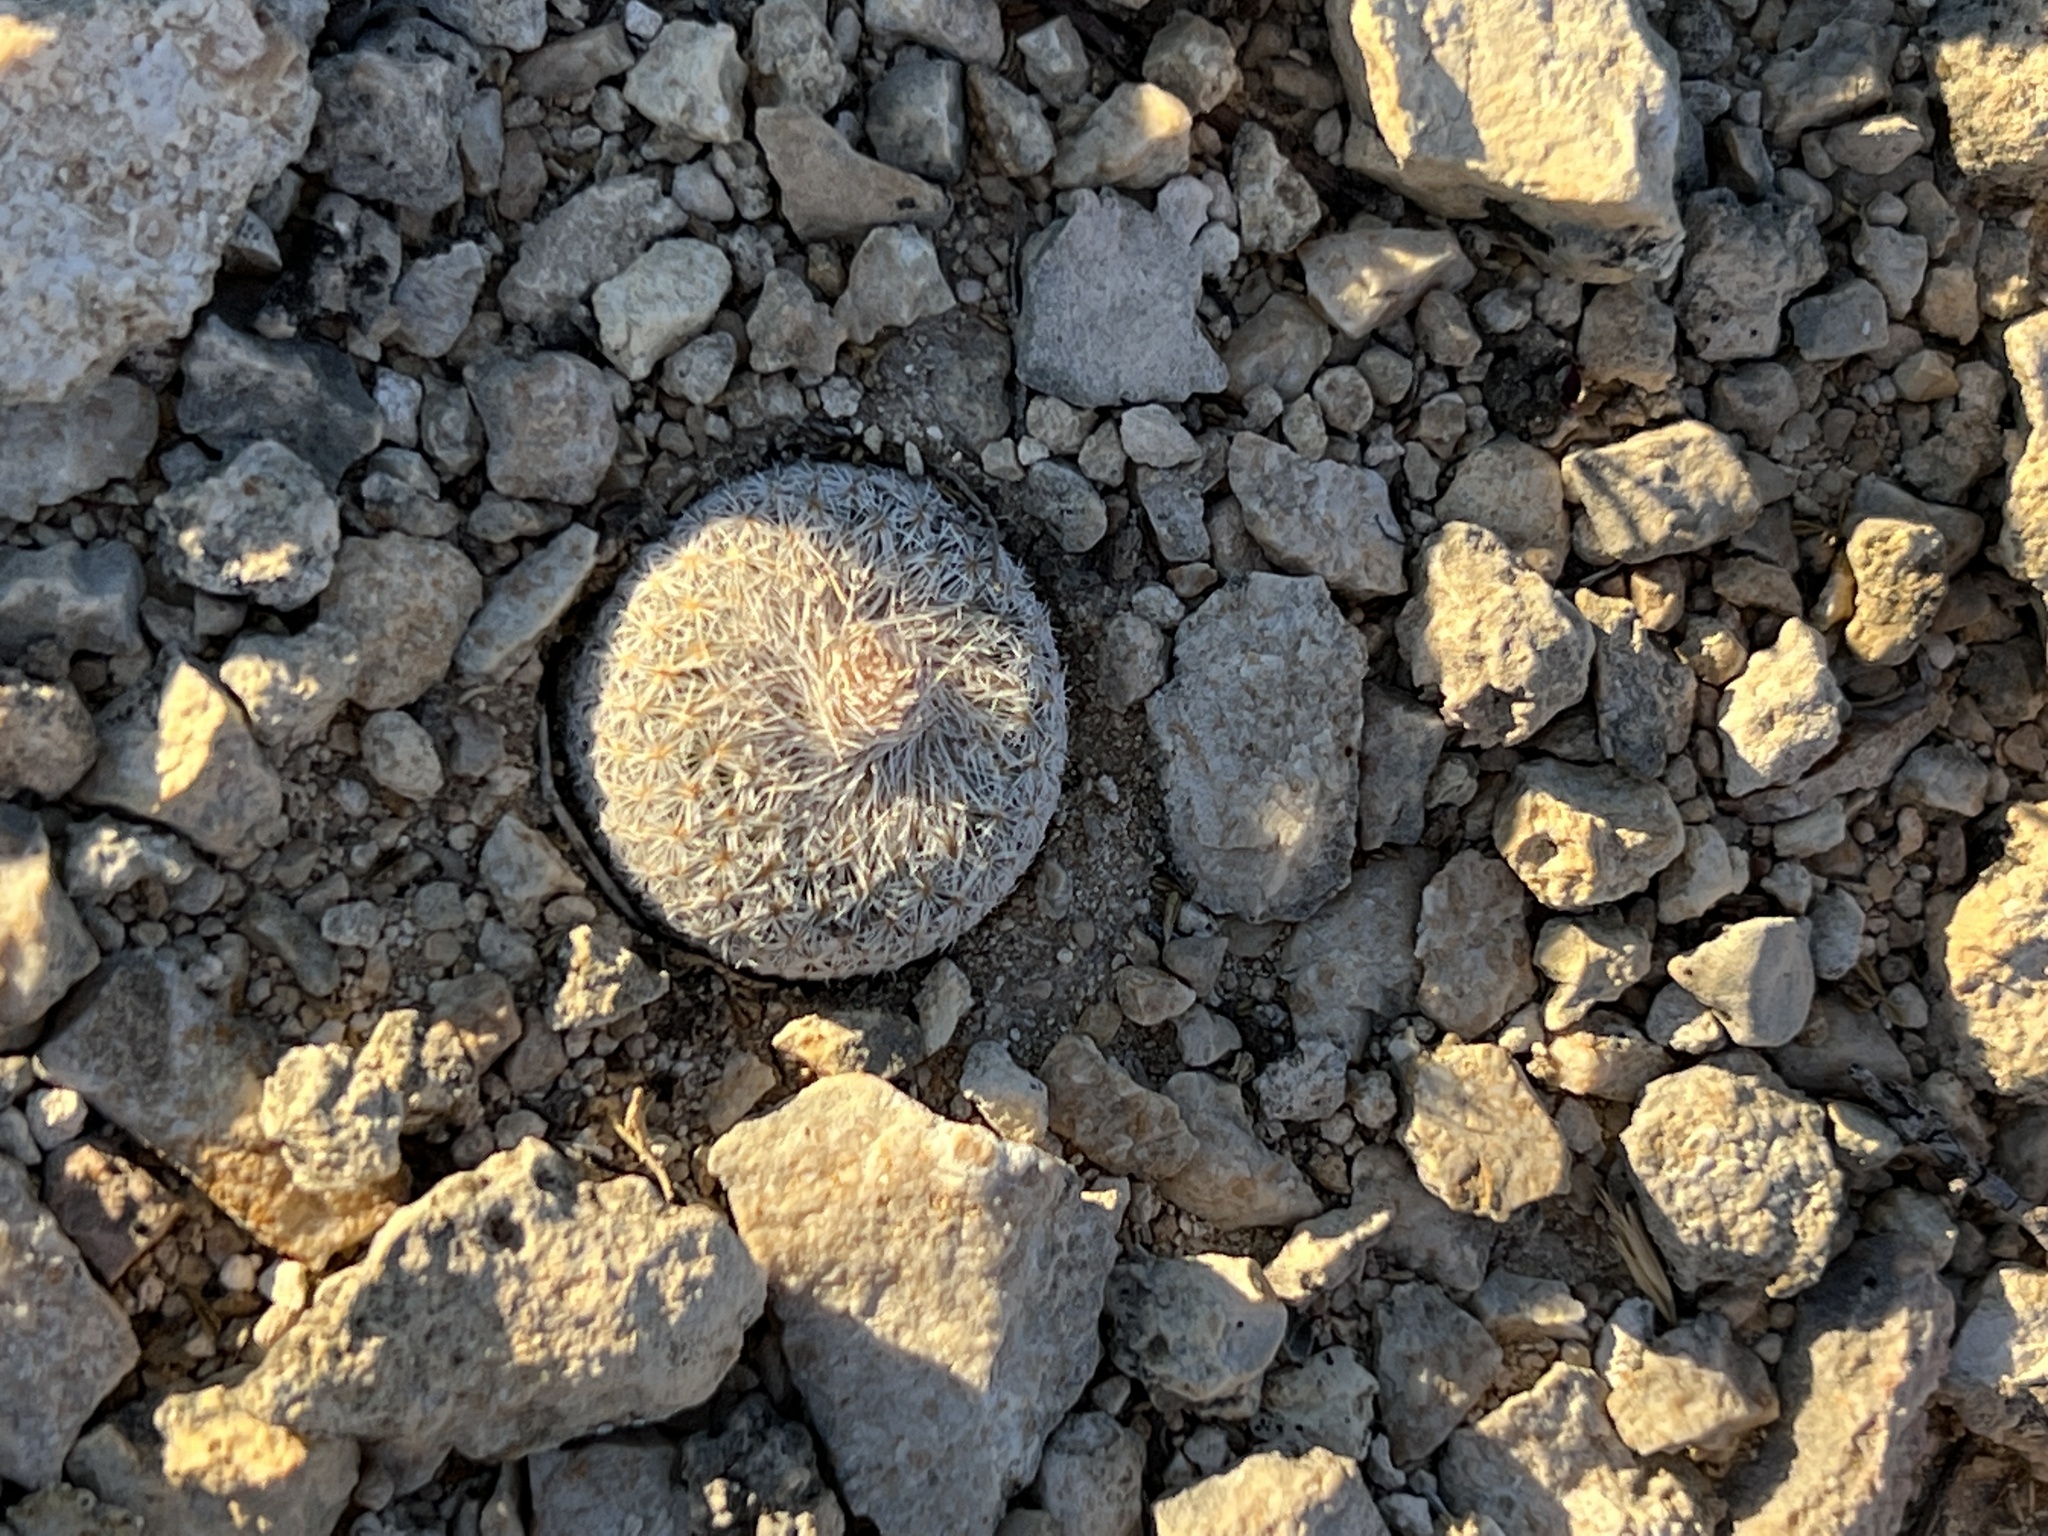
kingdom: Plantae
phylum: Tracheophyta
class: Magnoliopsida
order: Caryophyllales
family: Cactaceae
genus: Epithelantha
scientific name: Epithelantha micromeris
